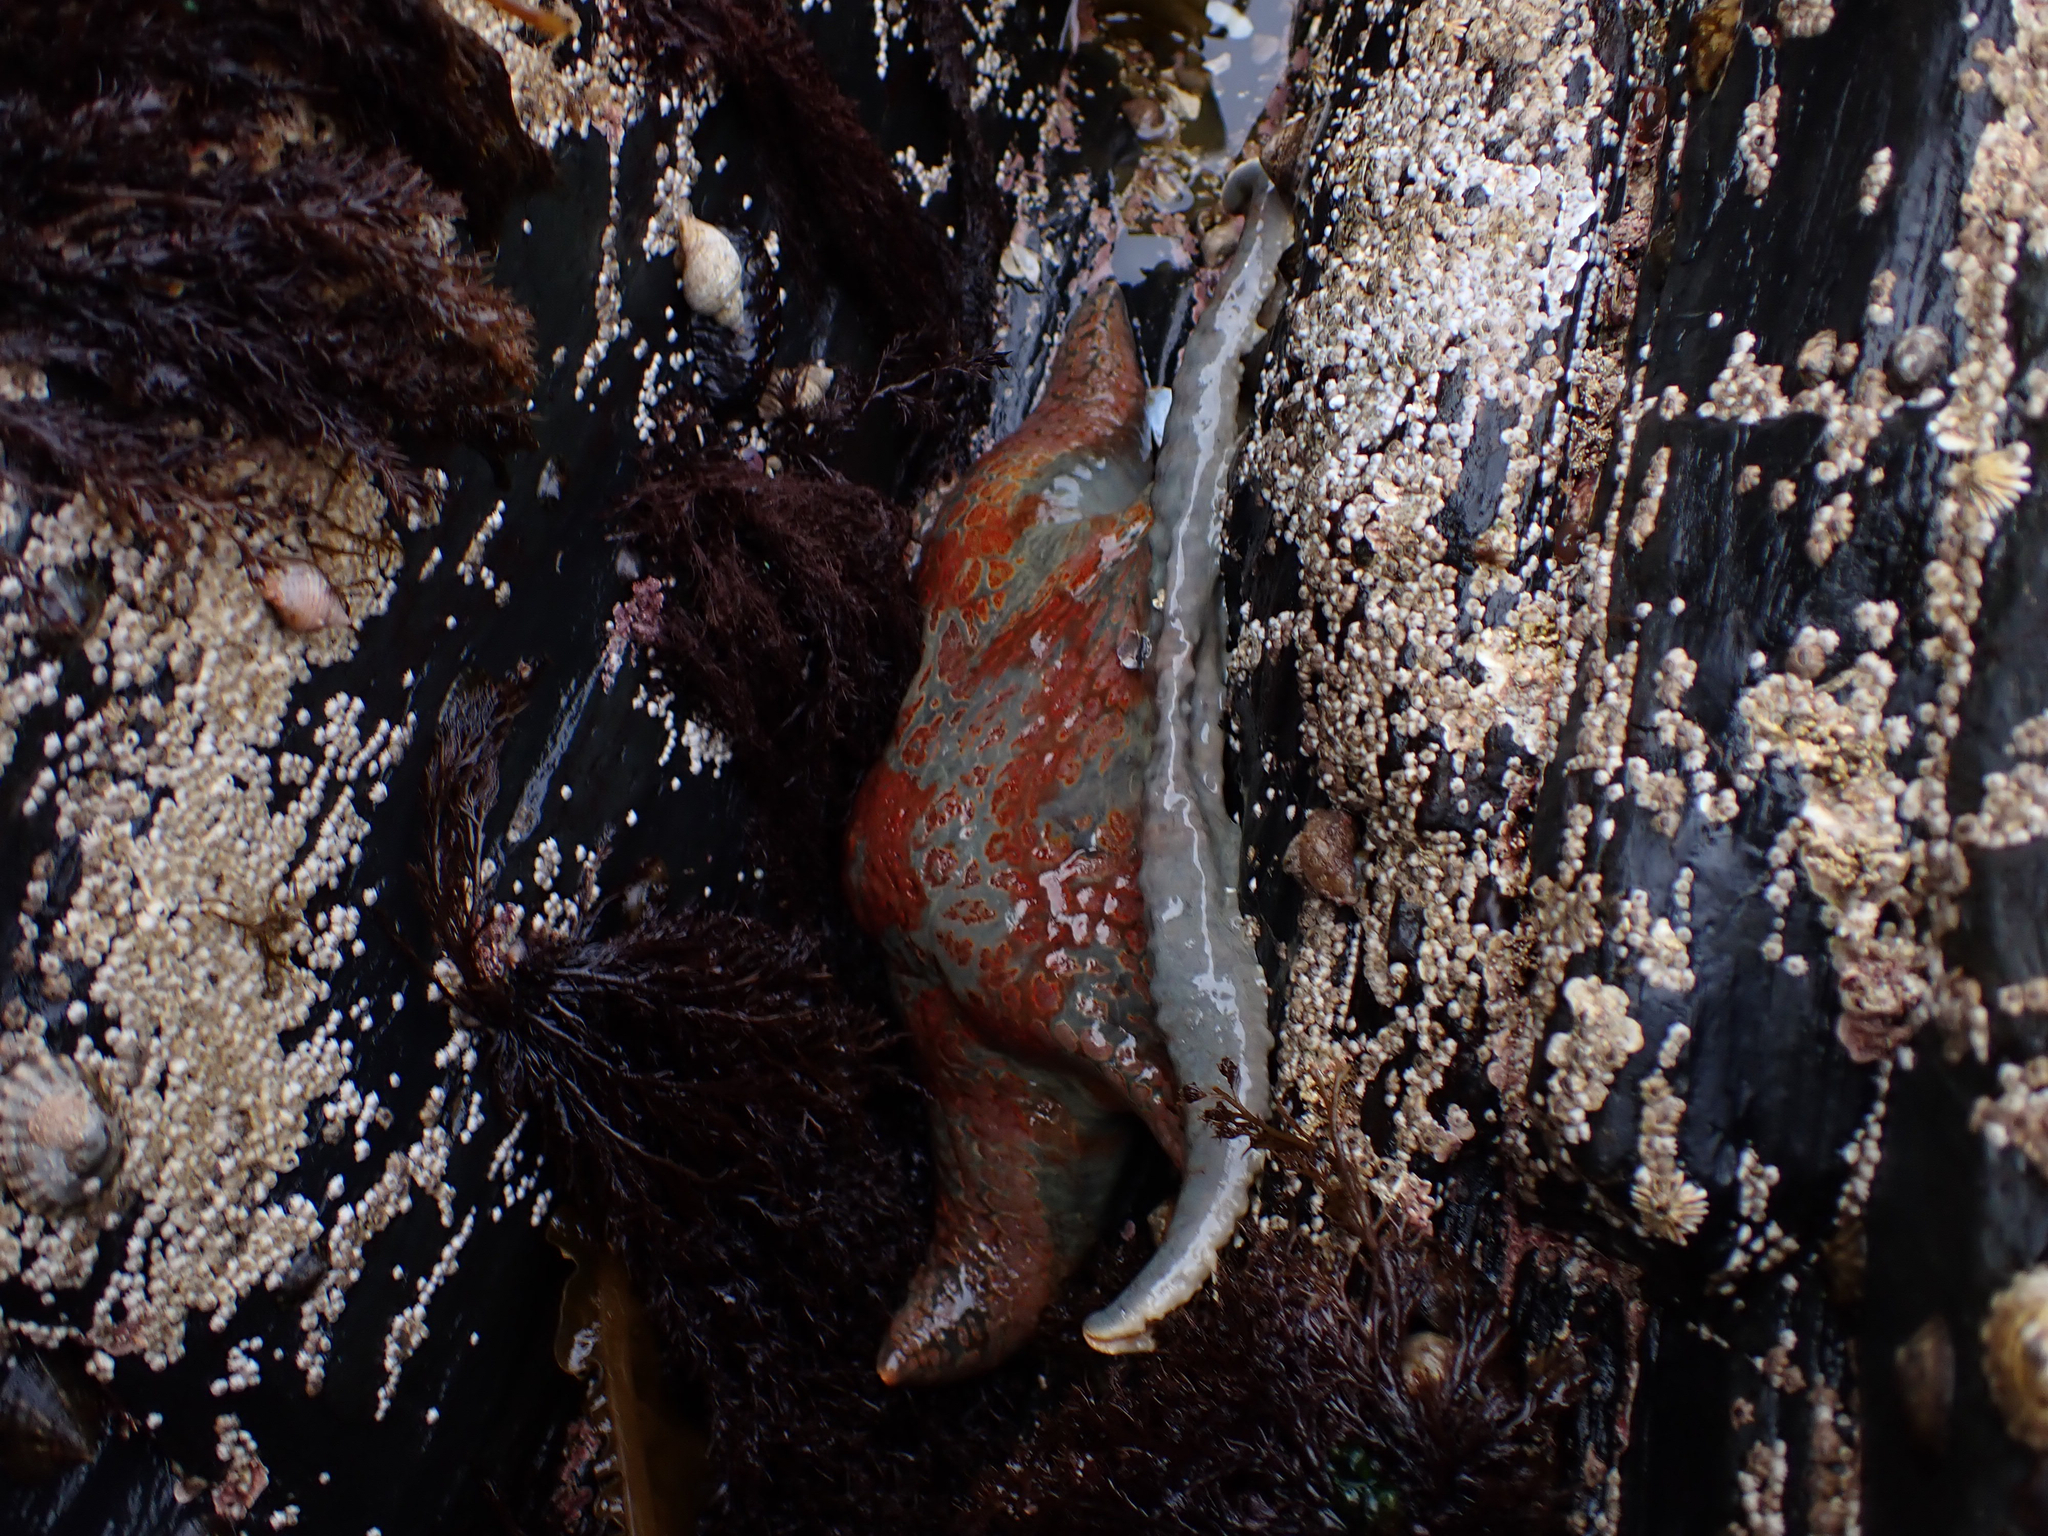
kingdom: Animalia
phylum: Echinodermata
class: Asteroidea
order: Valvatida
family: Asteropseidae
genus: Dermasterias
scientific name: Dermasterias imbricata
